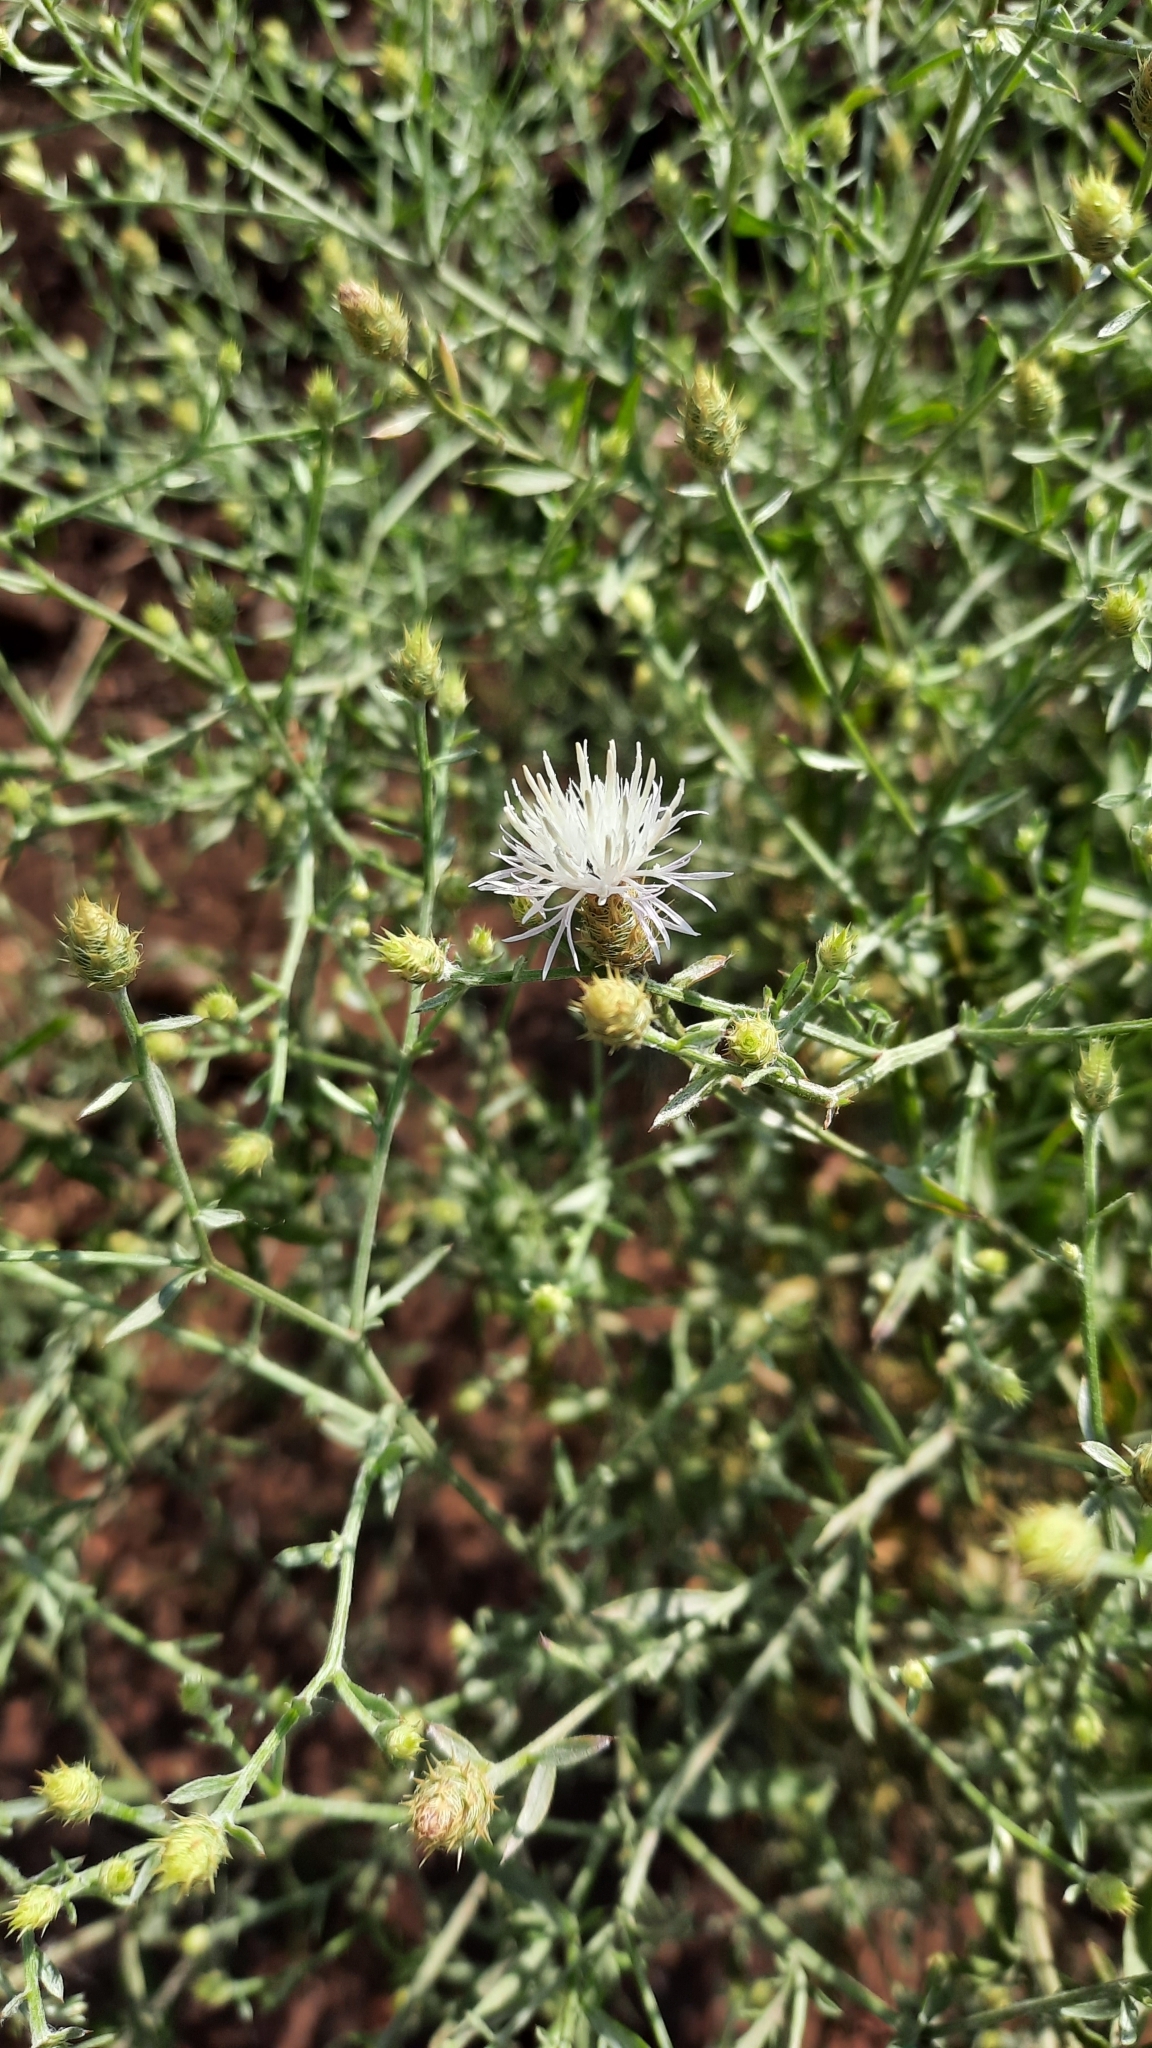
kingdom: Plantae
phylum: Tracheophyta
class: Magnoliopsida
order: Asterales
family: Asteraceae
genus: Centaurea
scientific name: Centaurea diffusa
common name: Diffuse knapweed
